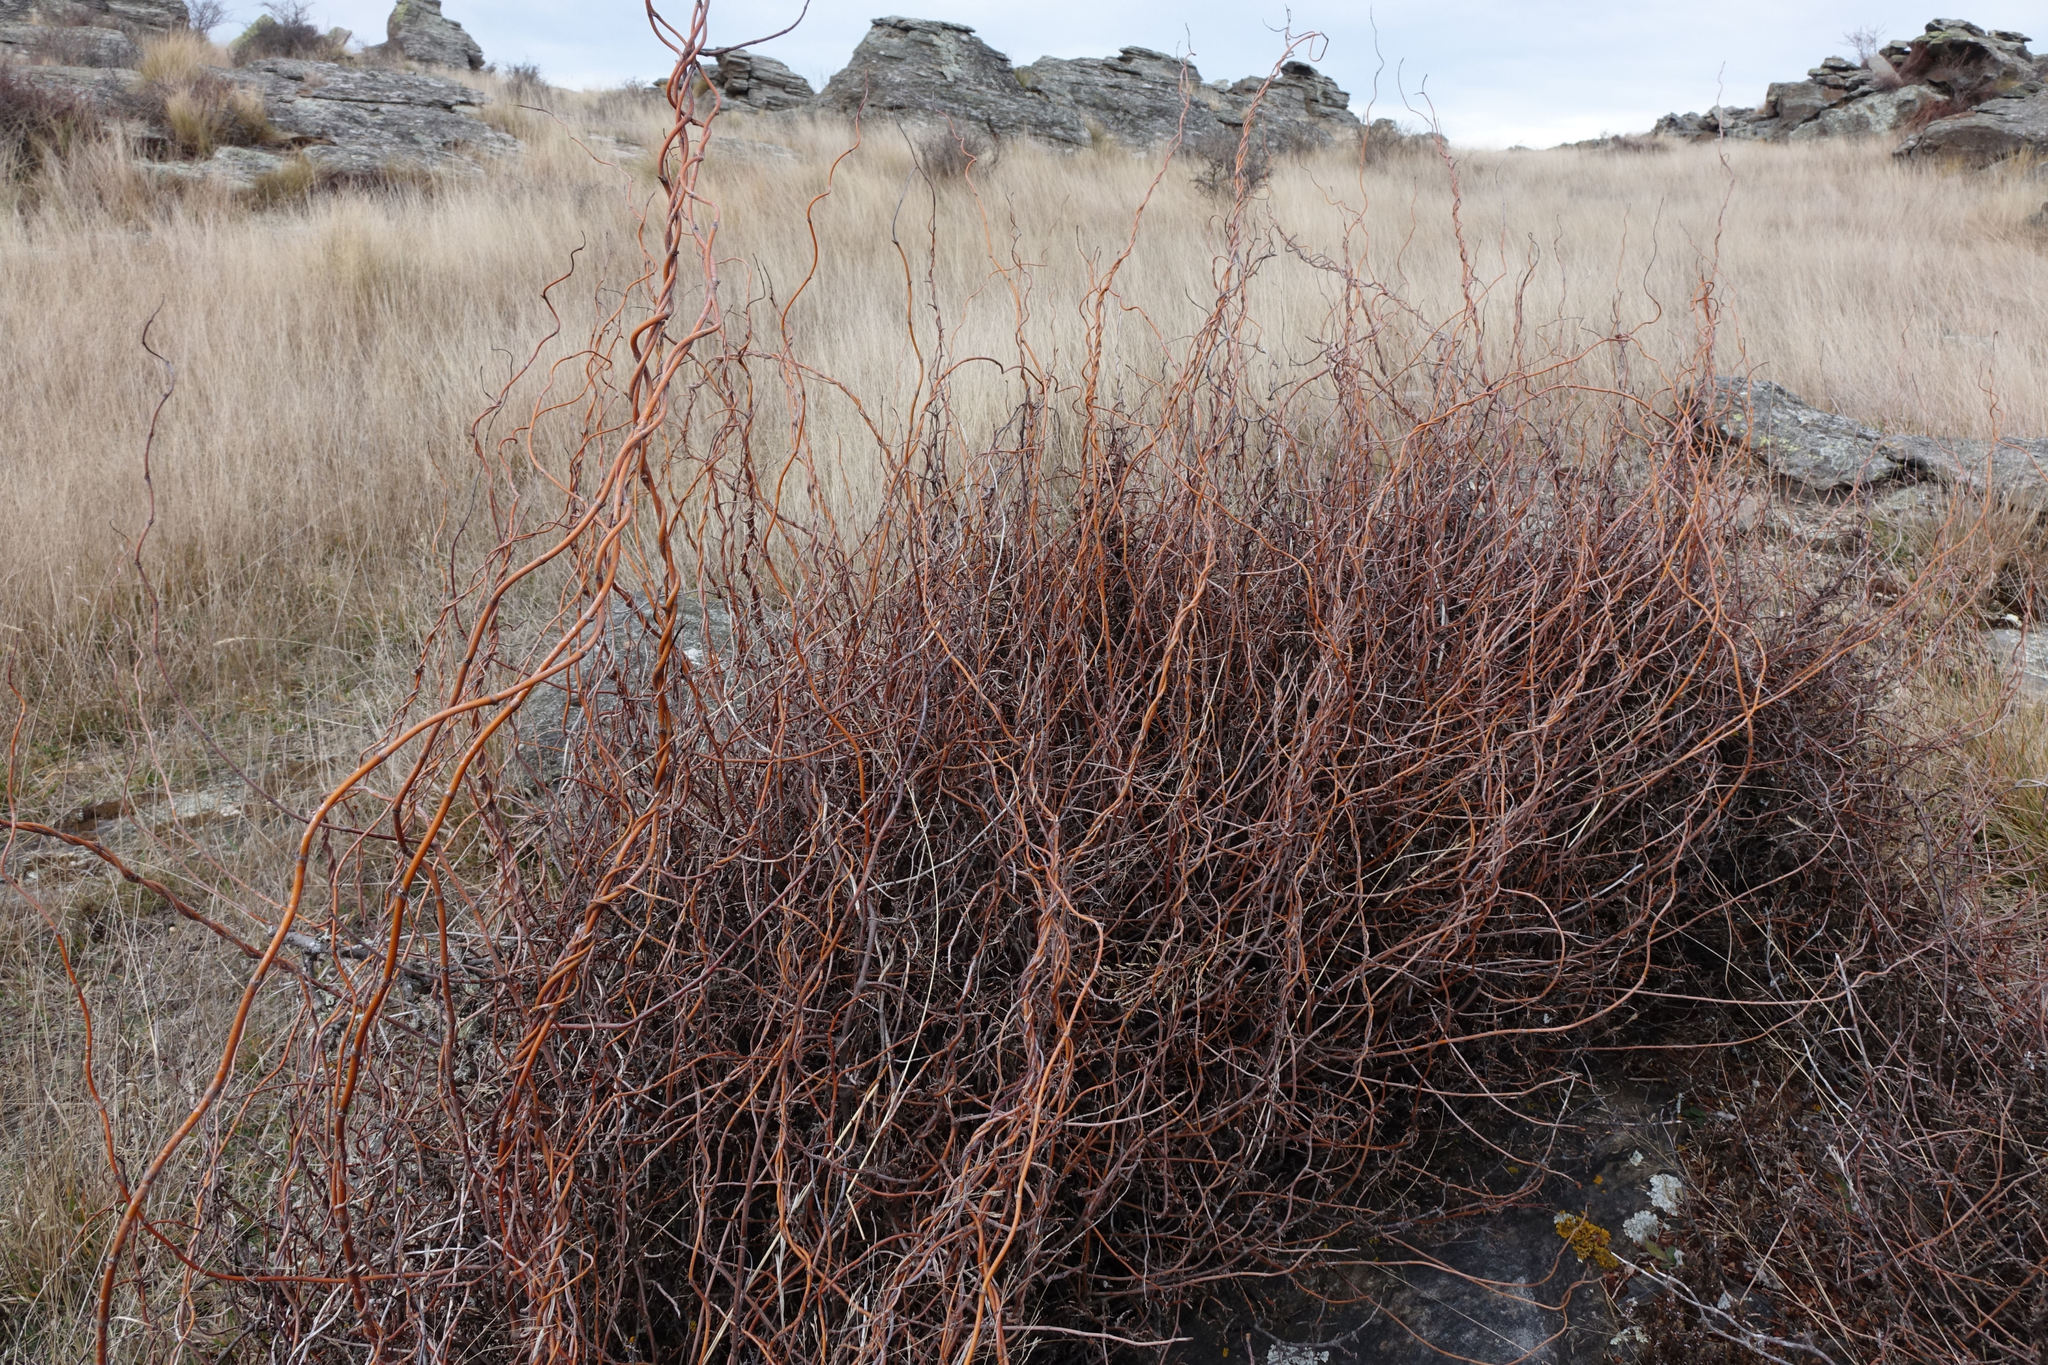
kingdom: Plantae
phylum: Tracheophyta
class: Magnoliopsida
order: Caryophyllales
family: Polygonaceae
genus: Muehlenbeckia
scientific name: Muehlenbeckia complexa
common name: Wireplant
